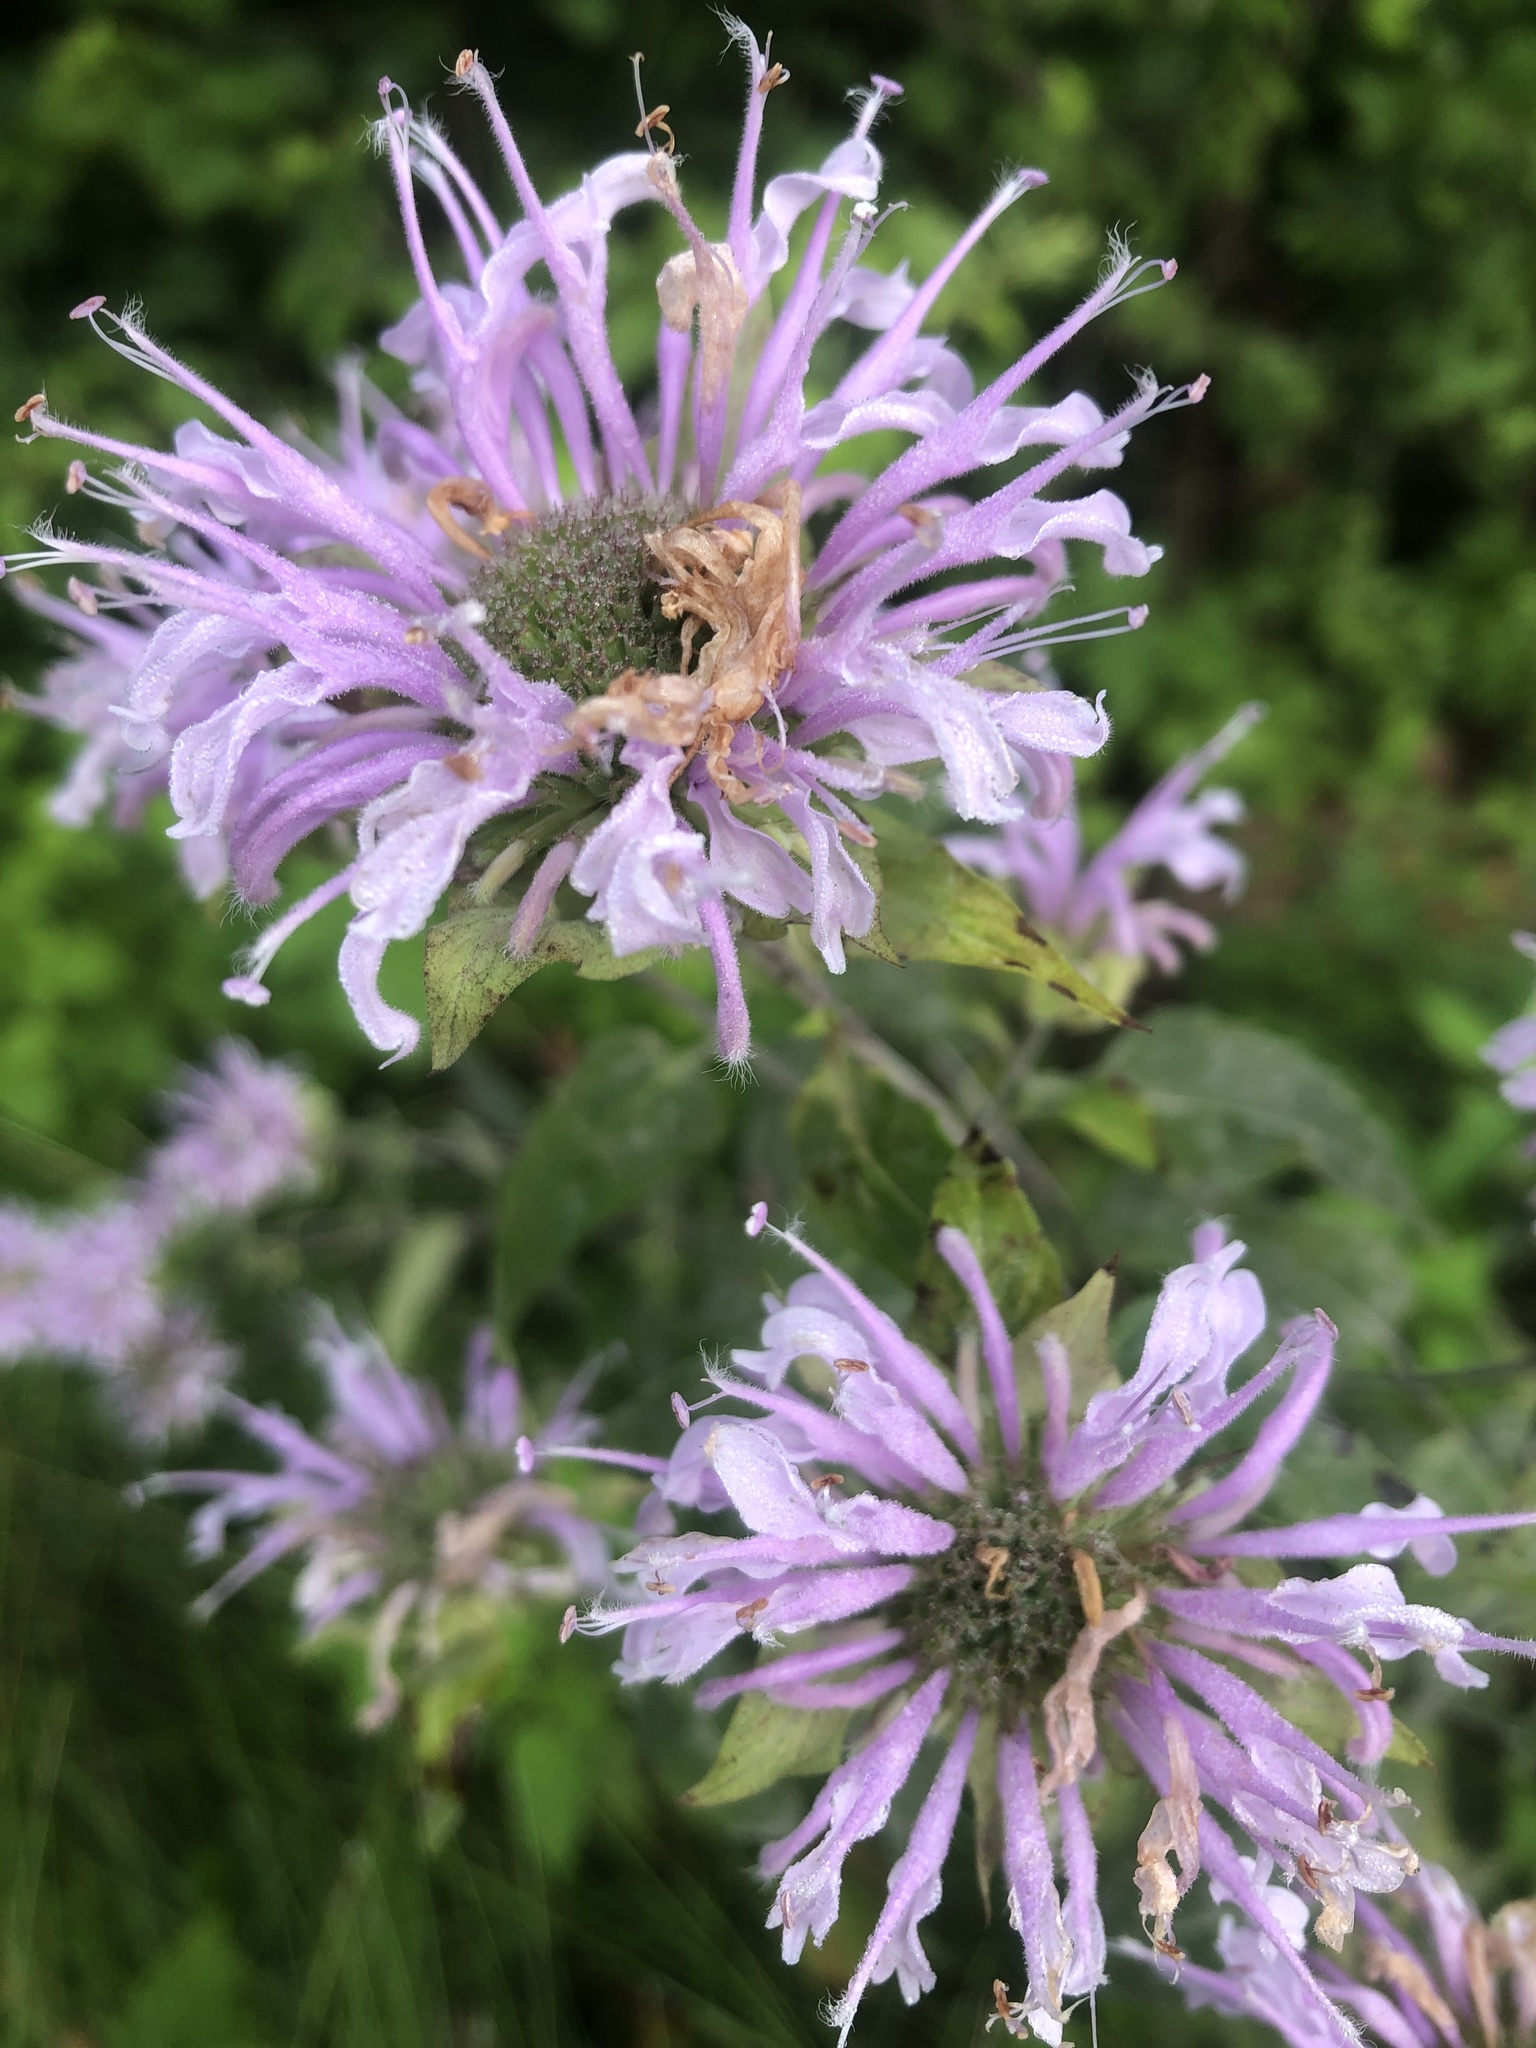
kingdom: Plantae
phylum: Tracheophyta
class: Magnoliopsida
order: Lamiales
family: Lamiaceae
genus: Monarda
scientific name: Monarda fistulosa
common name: Purple beebalm
